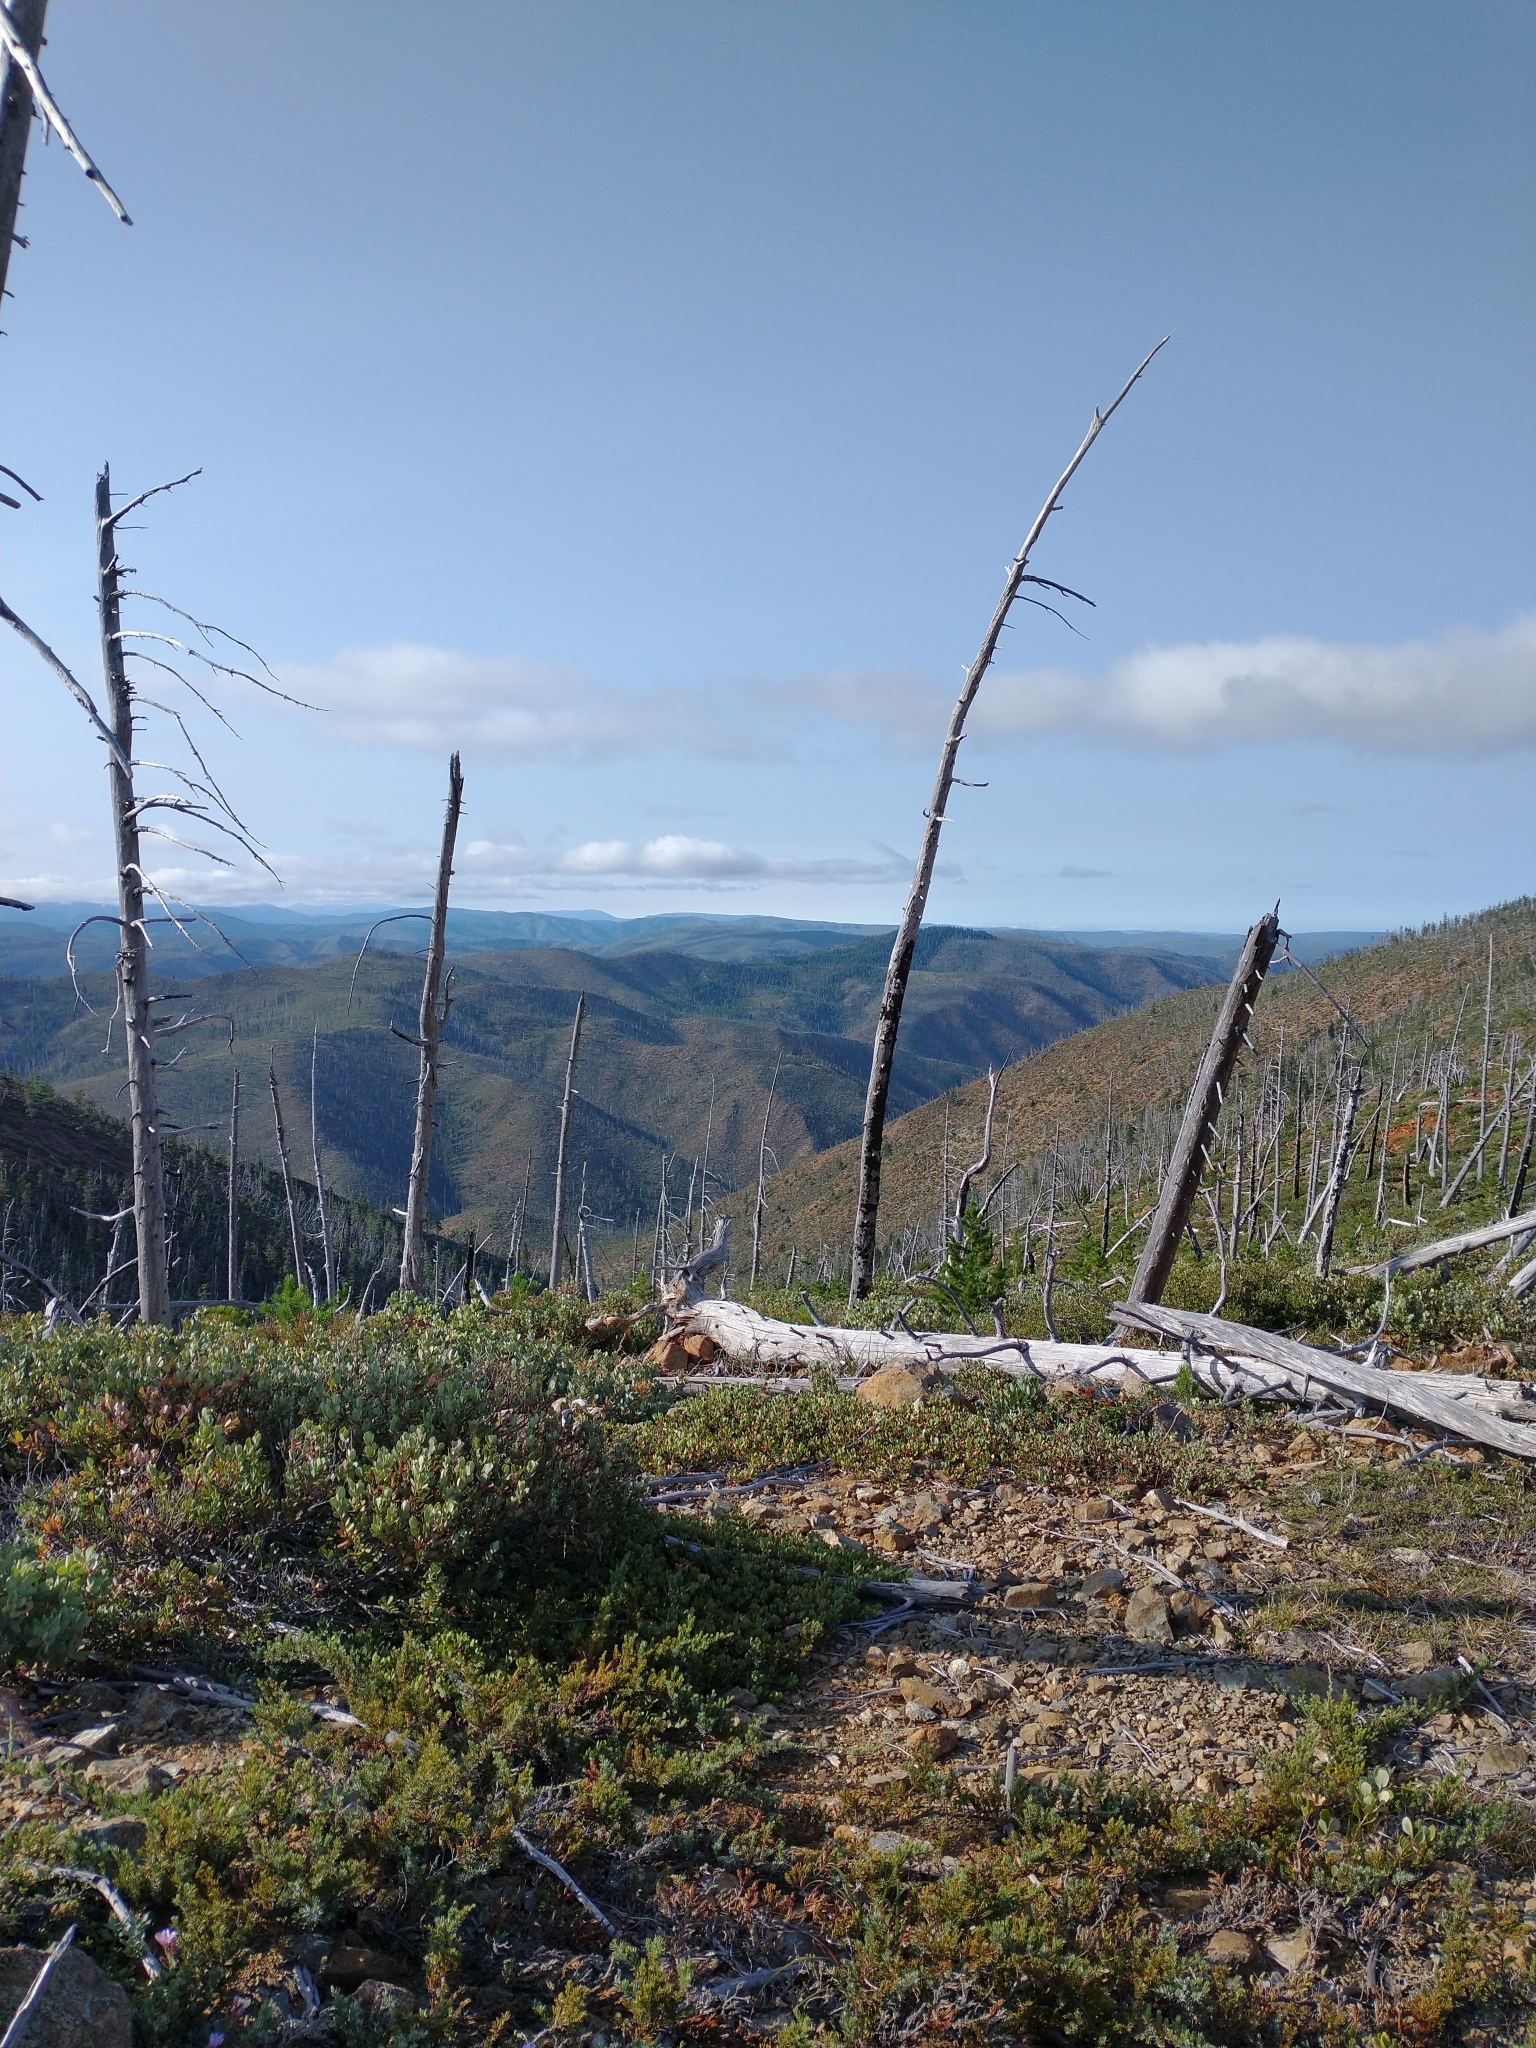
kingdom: Plantae
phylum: Tracheophyta
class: Pinopsida
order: Pinales
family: Cupressaceae
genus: Juniperus
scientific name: Juniperus communis
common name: Common juniper
